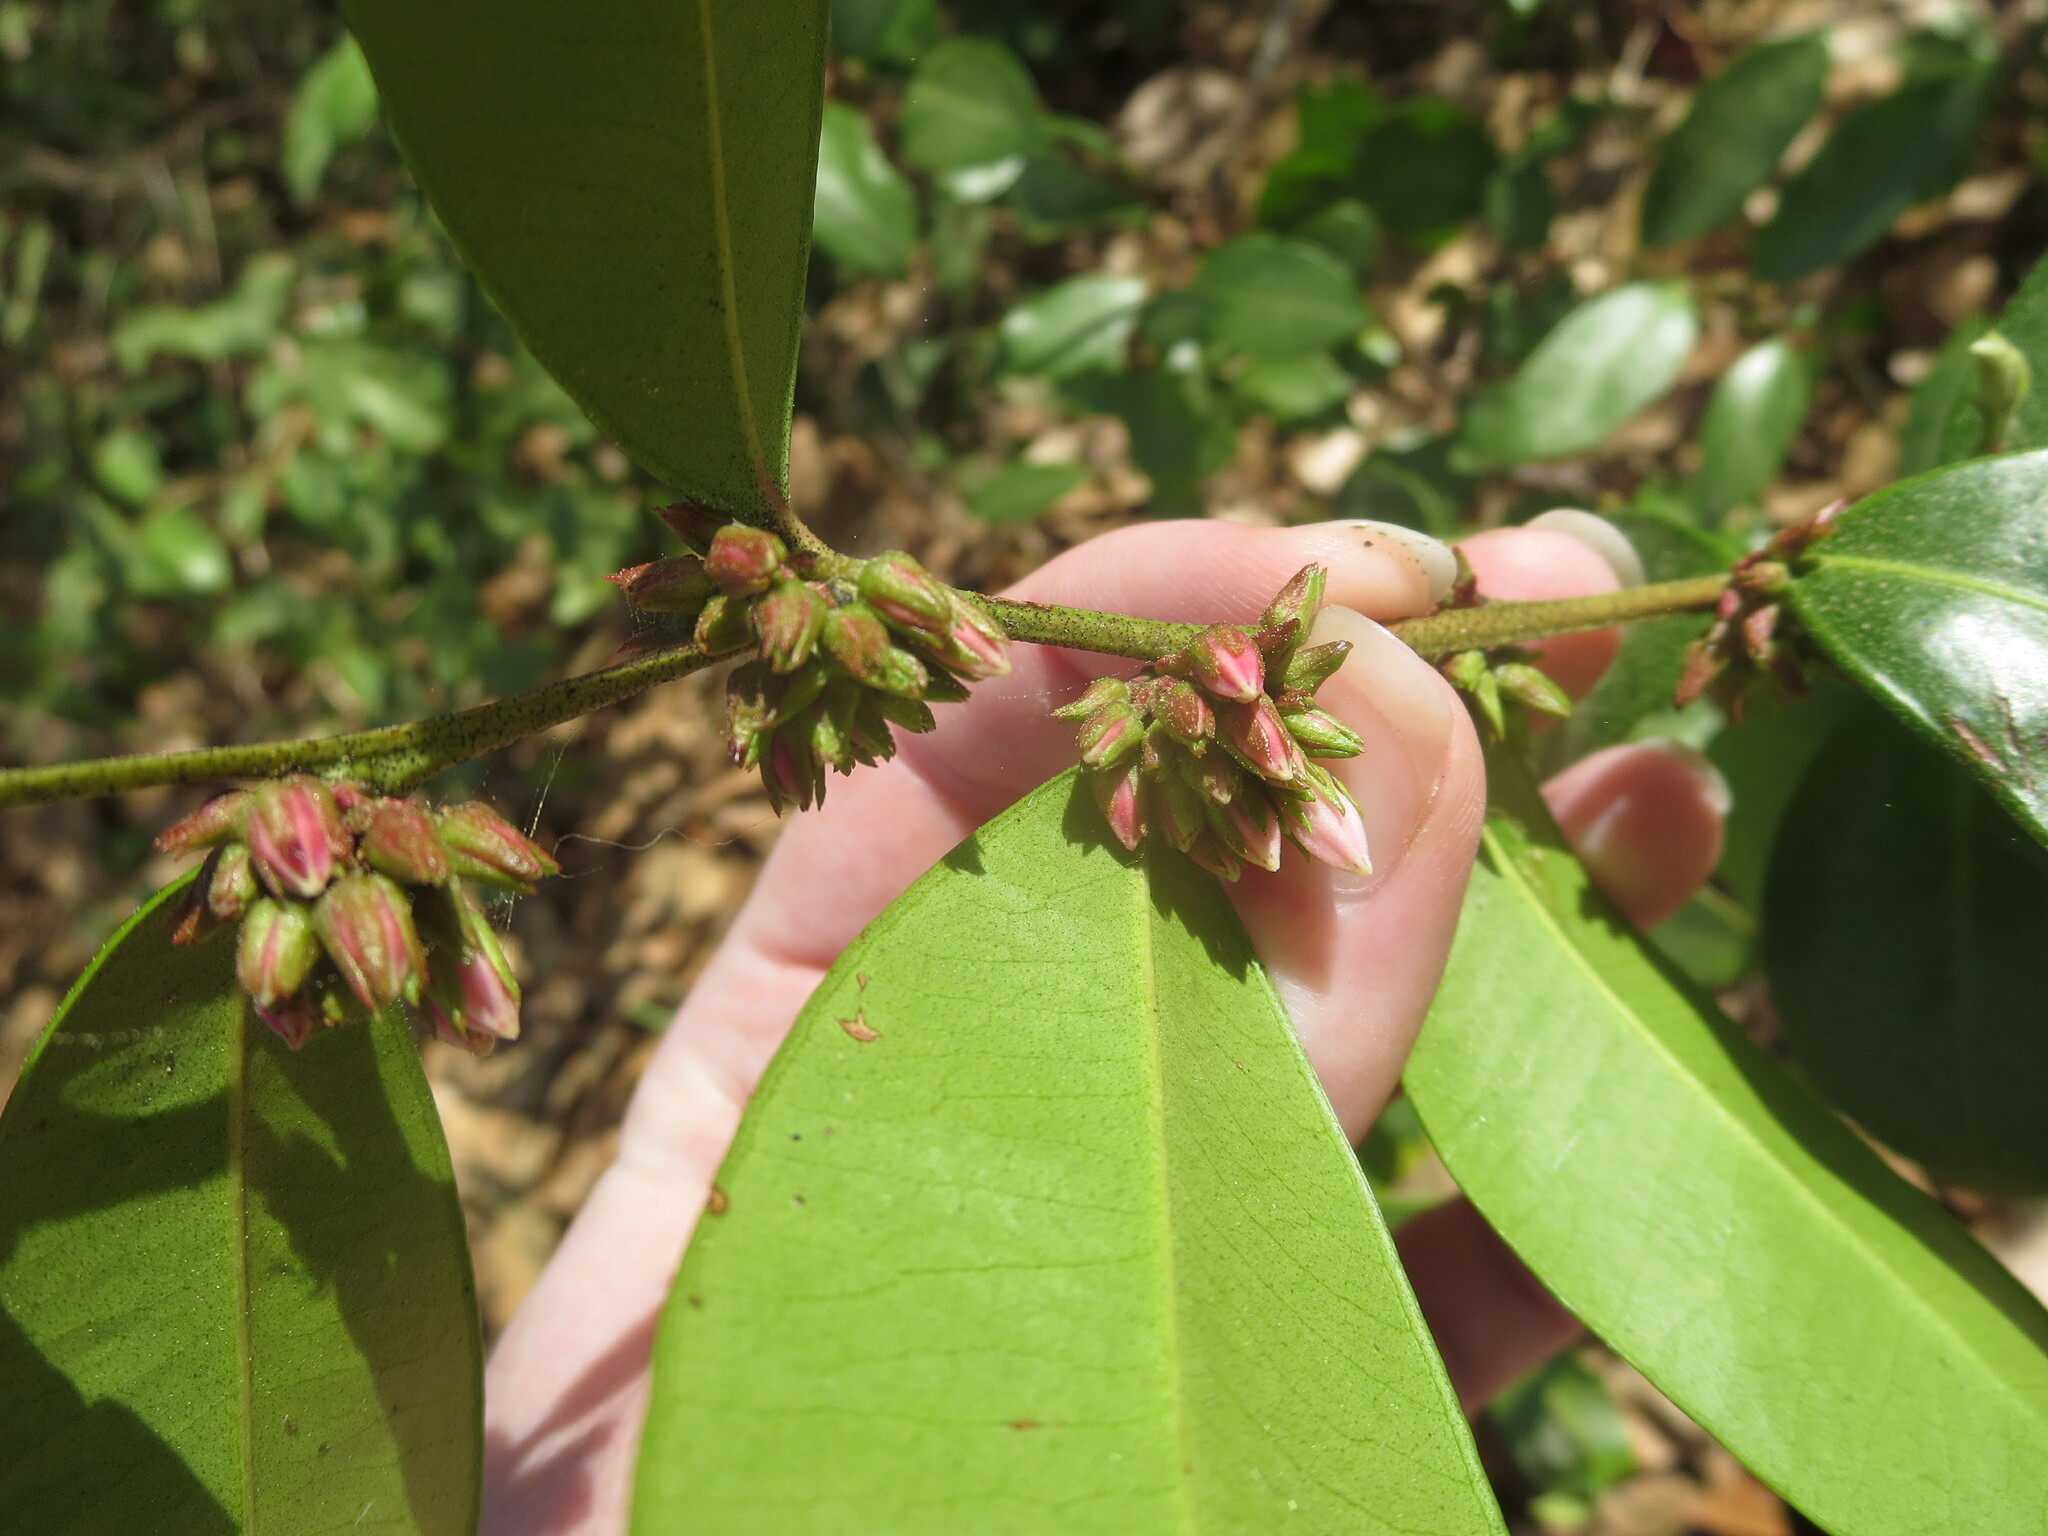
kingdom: Plantae
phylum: Tracheophyta
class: Magnoliopsida
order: Ericales
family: Ericaceae
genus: Lyonia
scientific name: Lyonia lucida
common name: Fetterbush
